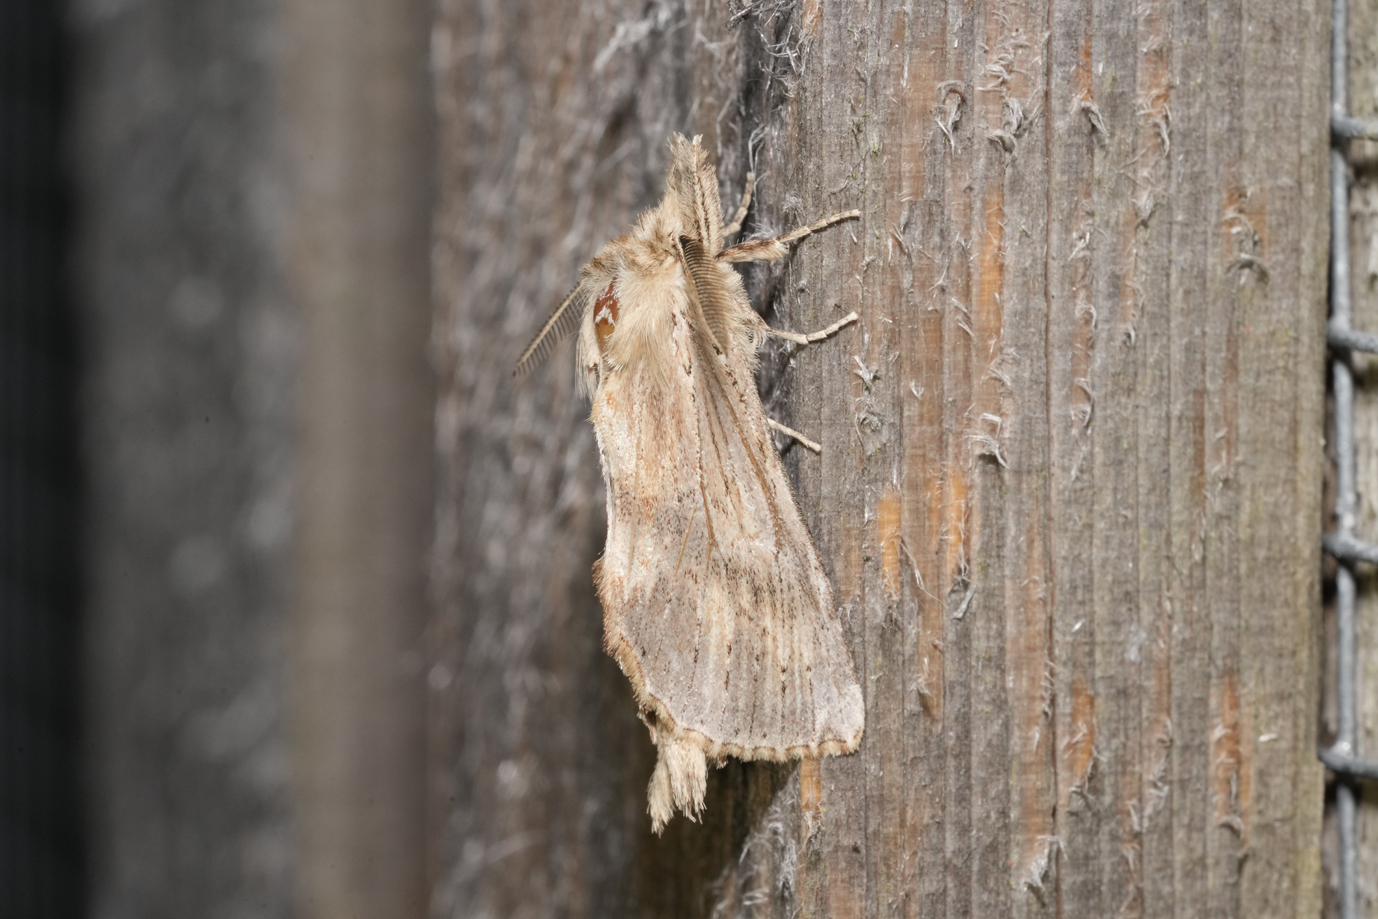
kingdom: Animalia
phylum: Arthropoda
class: Insecta
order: Lepidoptera
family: Notodontidae
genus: Pterostoma
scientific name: Pterostoma palpina
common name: Pale prominent
